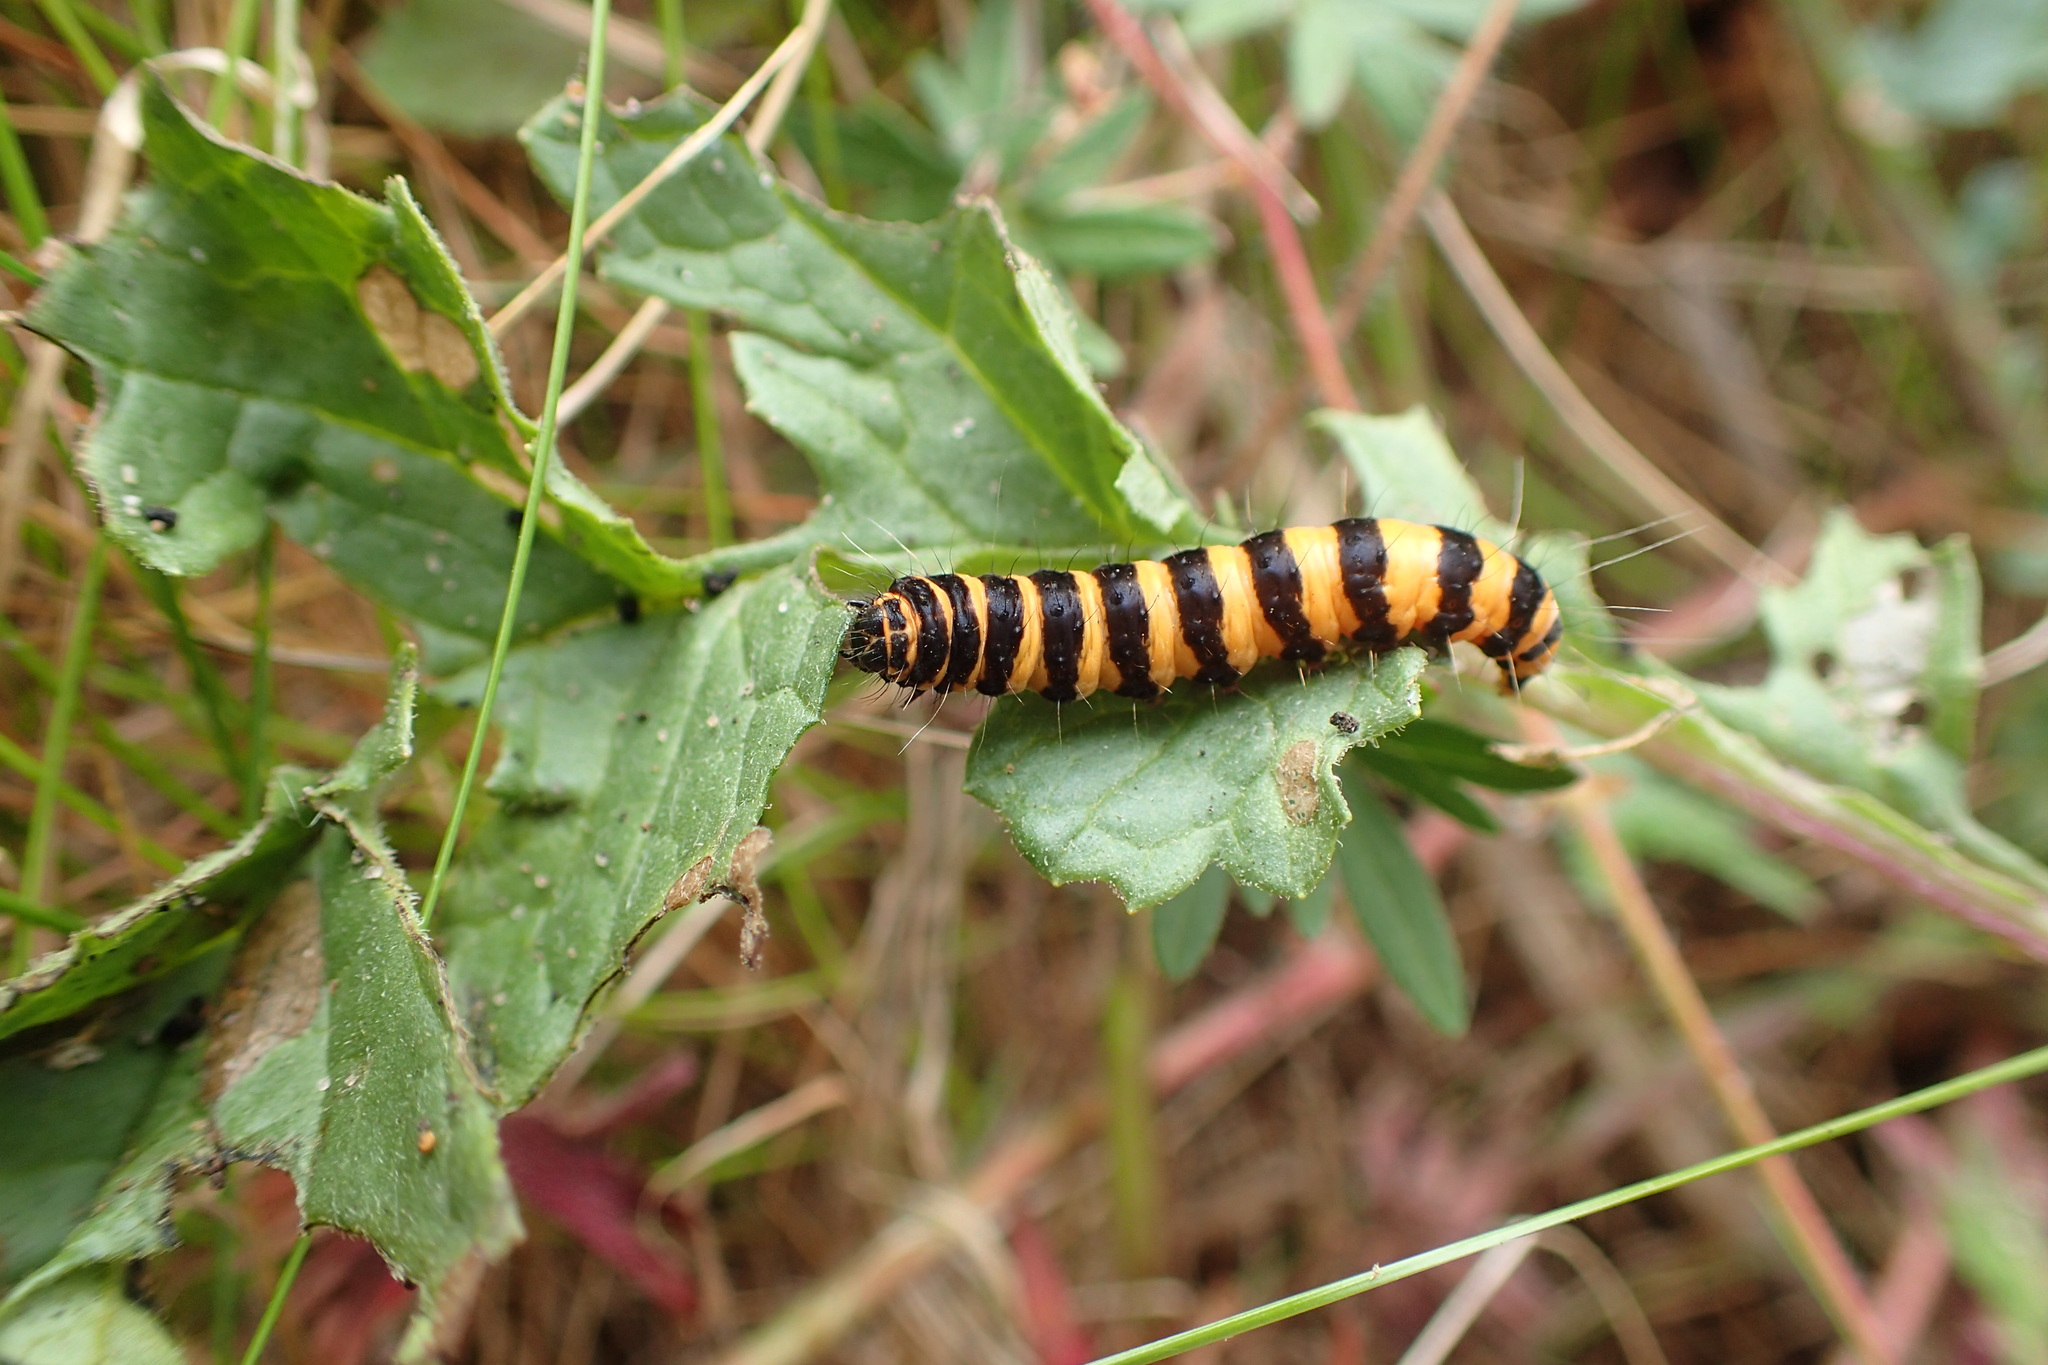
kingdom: Animalia
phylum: Arthropoda
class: Insecta
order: Lepidoptera
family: Erebidae
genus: Tyria
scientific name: Tyria jacobaeae
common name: Cinnabar
